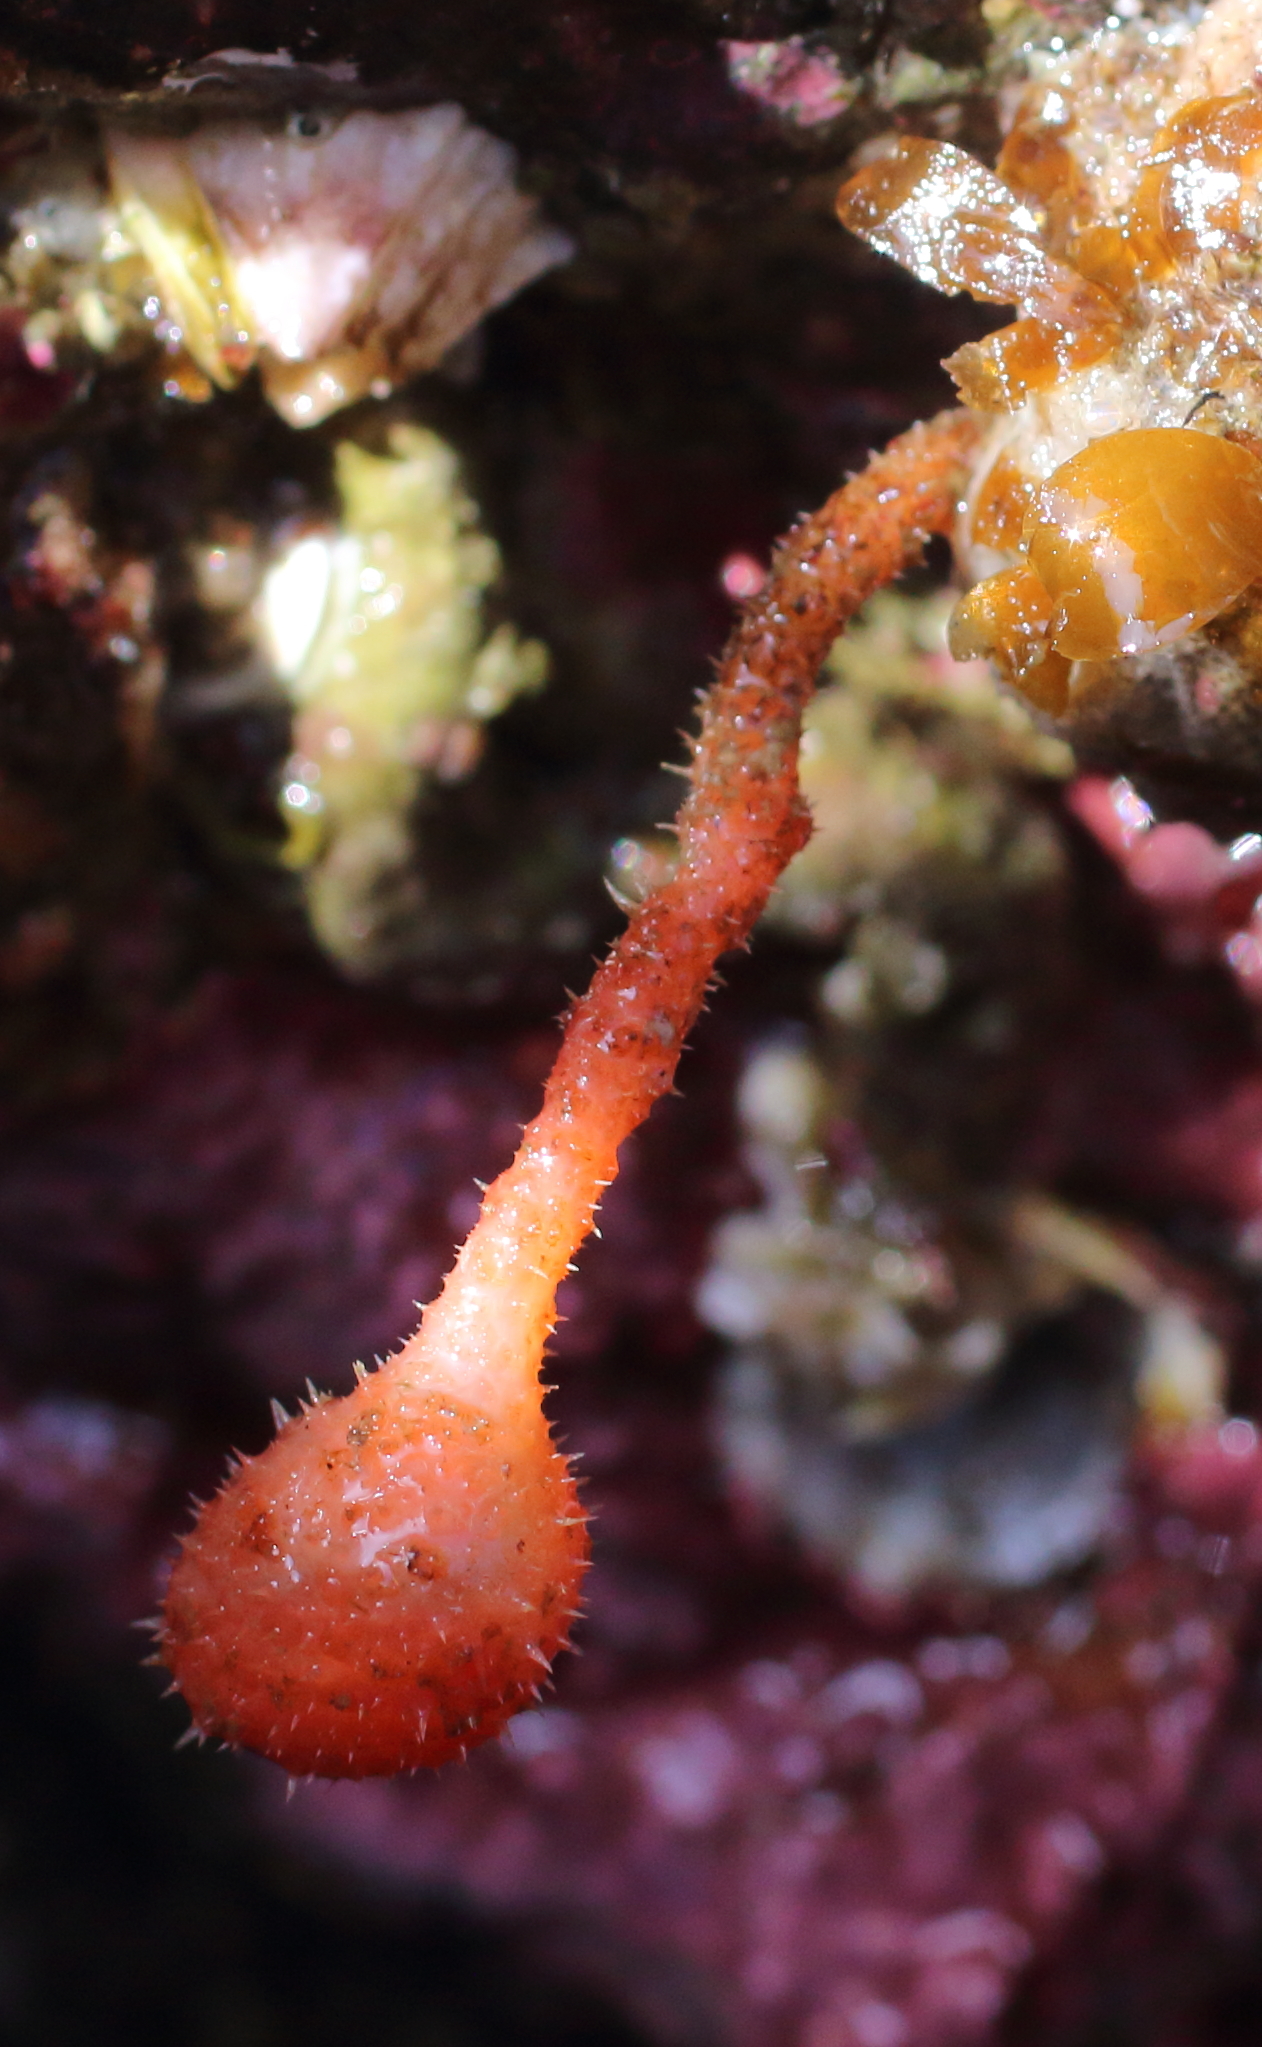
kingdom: Animalia
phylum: Chordata
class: Ascidiacea
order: Stolidobranchia
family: Pyuridae
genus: Boltenia
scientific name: Boltenia villosa
